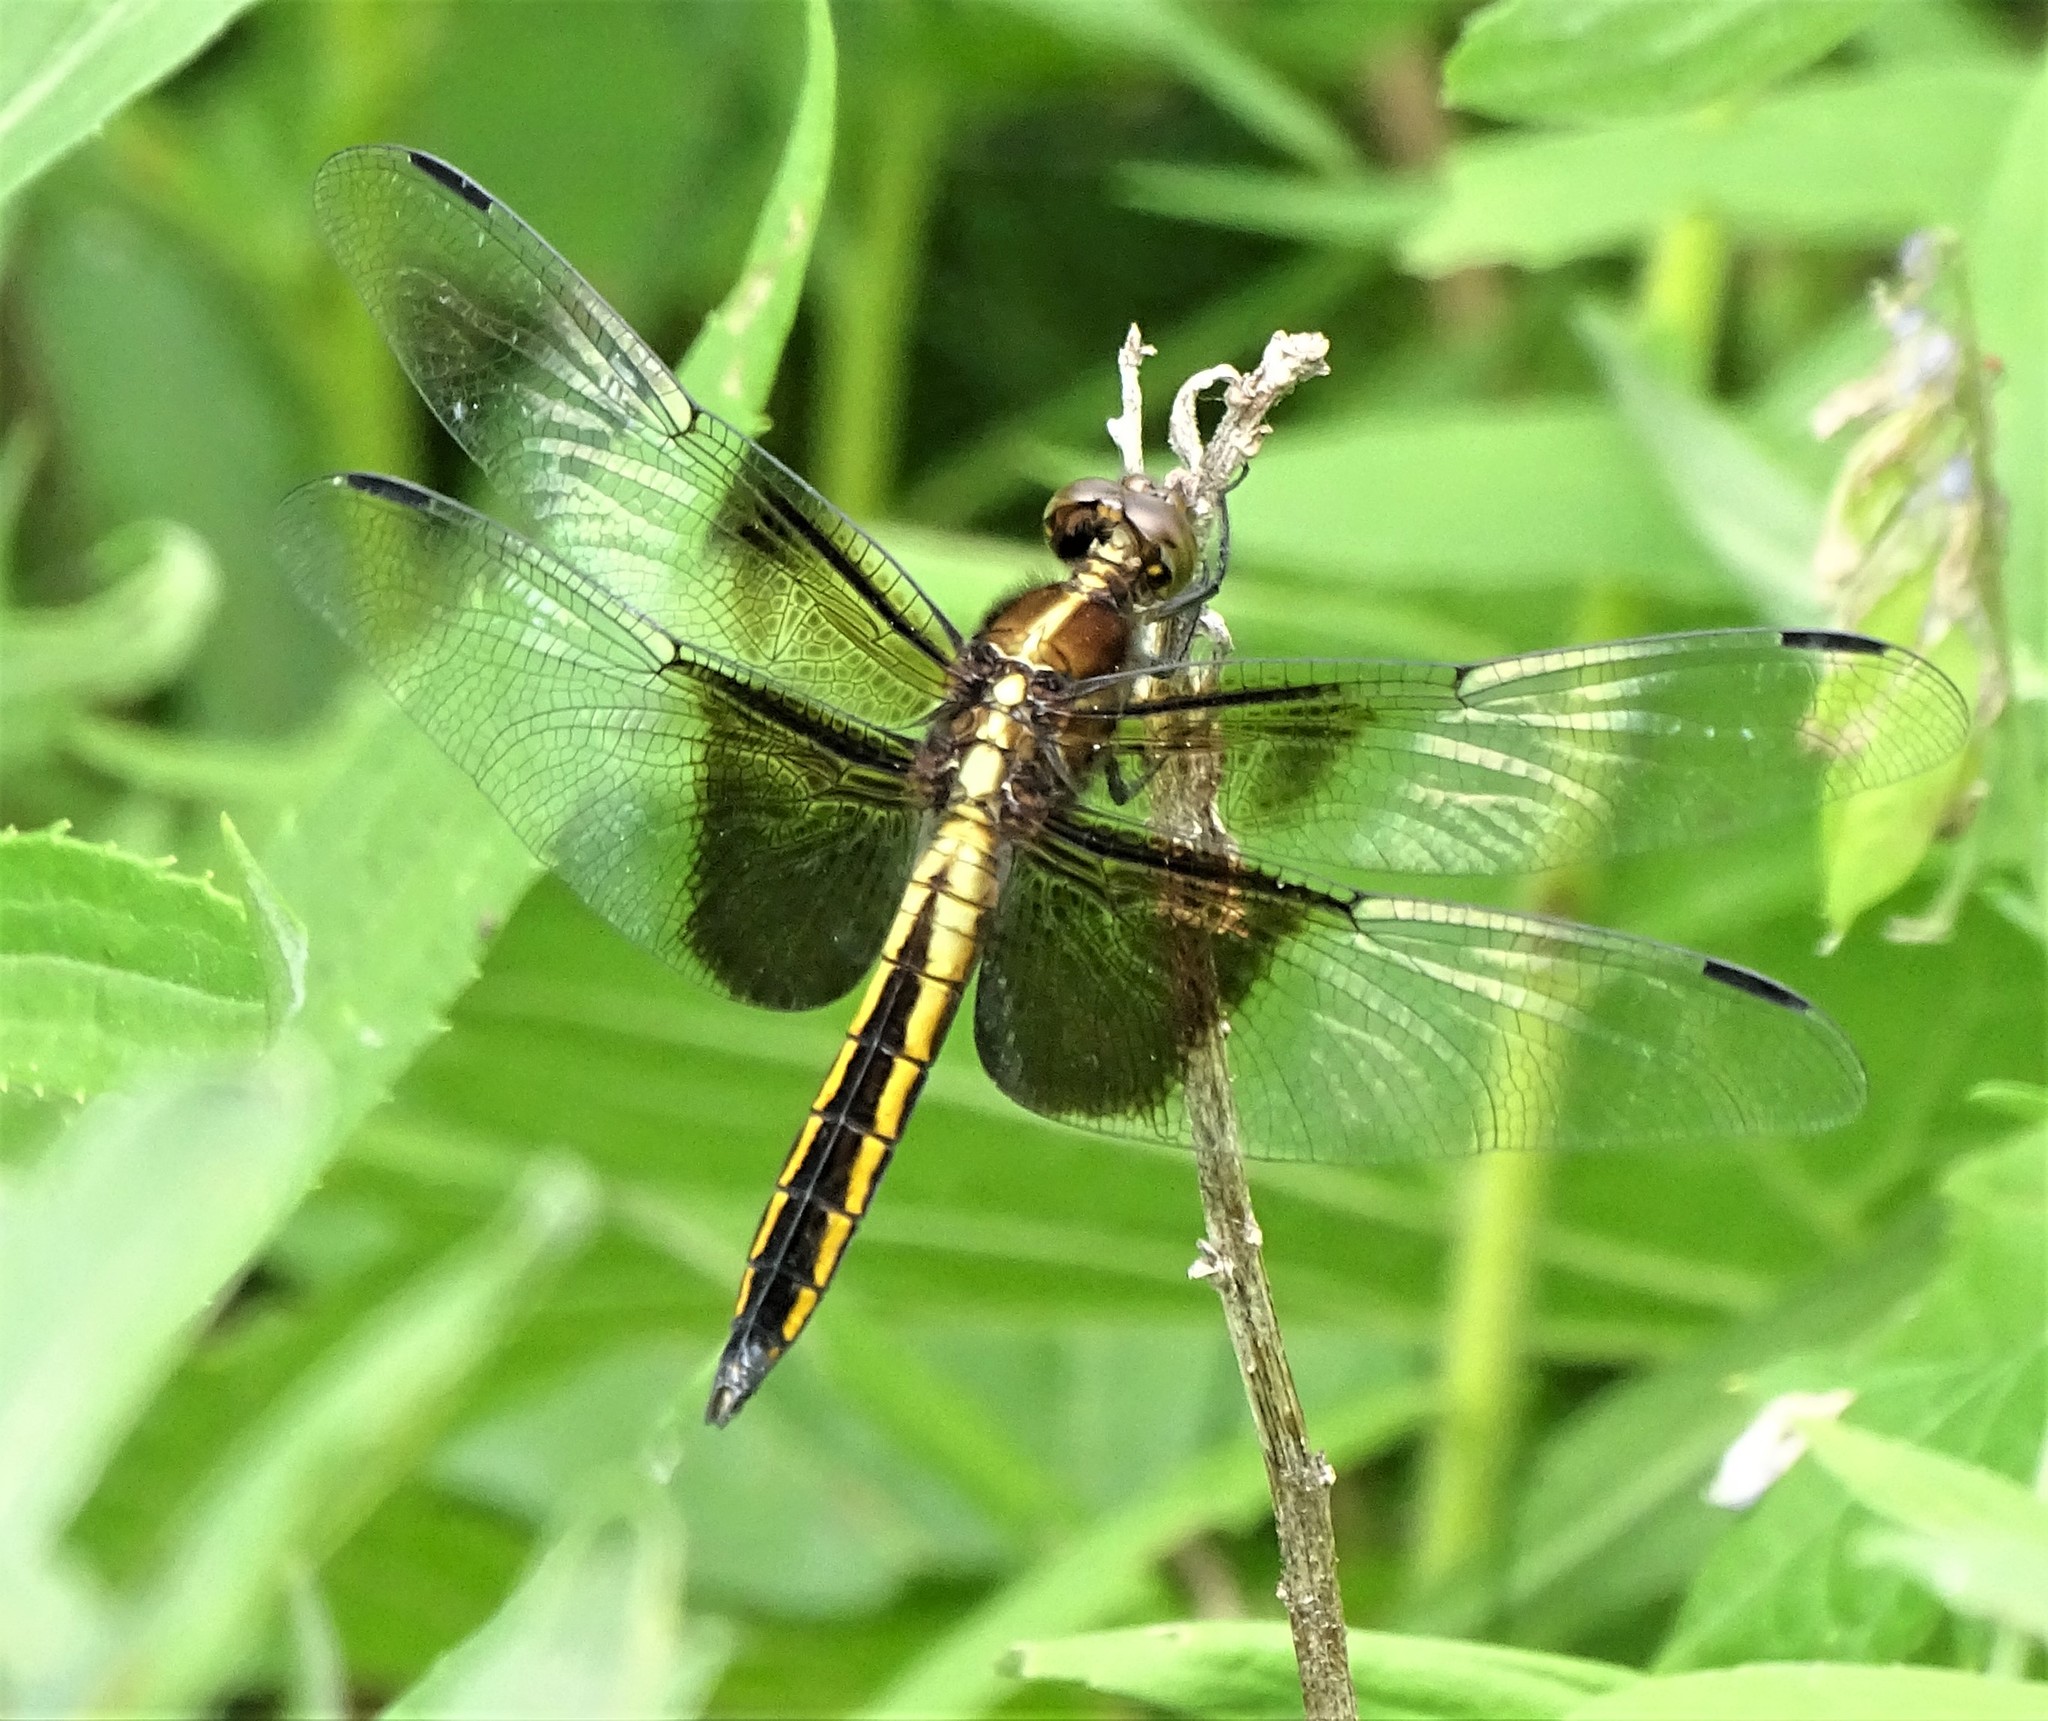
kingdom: Animalia
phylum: Arthropoda
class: Insecta
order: Odonata
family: Libellulidae
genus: Libellula
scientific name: Libellula luctuosa
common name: Widow skimmer
